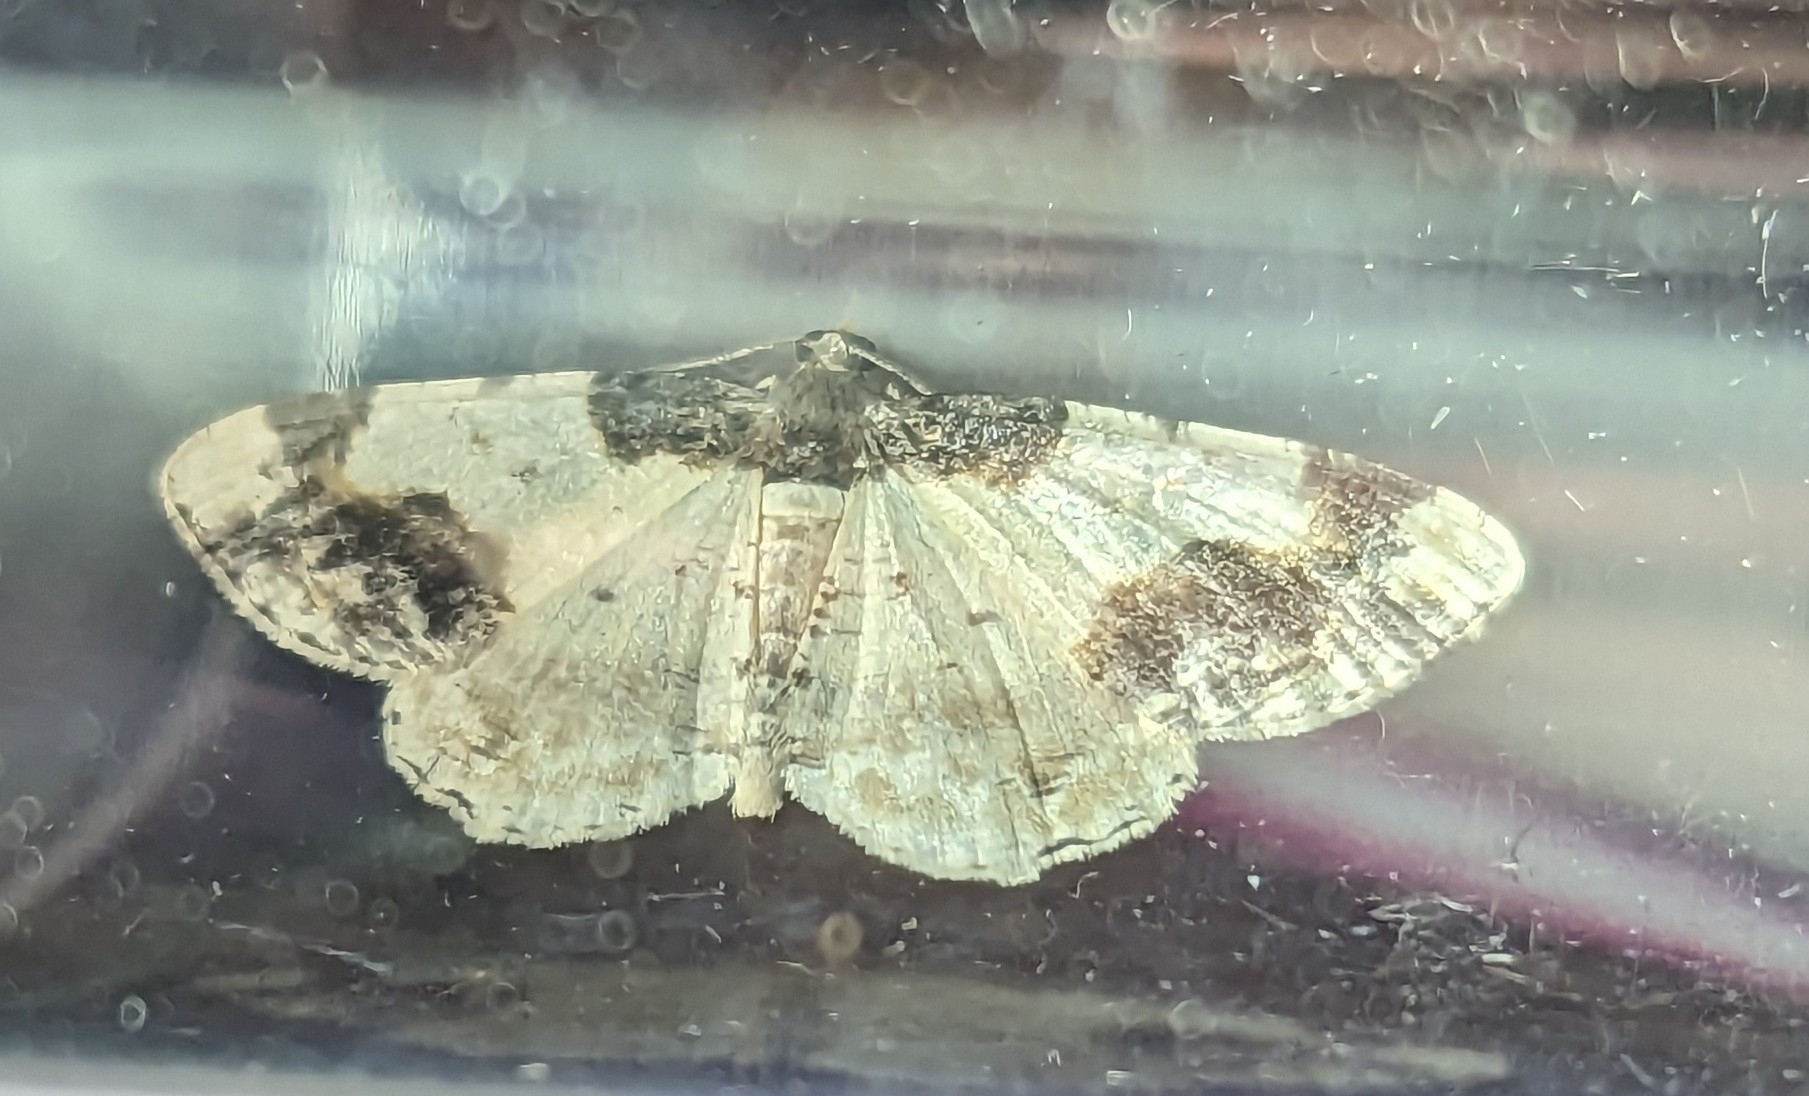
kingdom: Animalia
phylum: Arthropoda
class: Insecta
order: Lepidoptera
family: Geometridae
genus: Ligdia
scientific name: Ligdia adustata
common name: Scorched carpet
